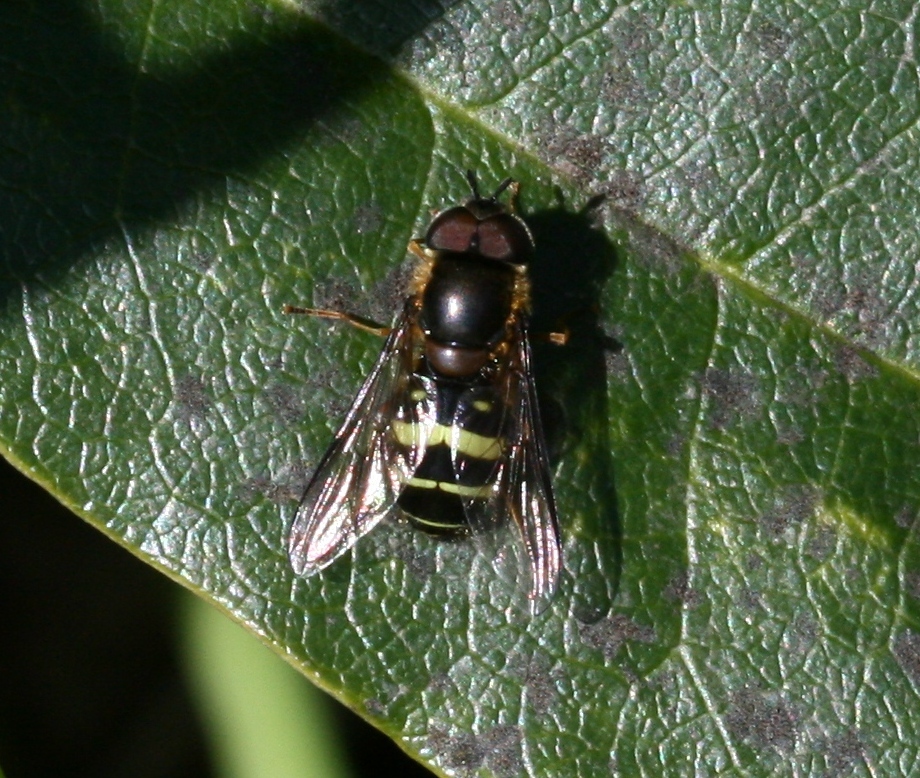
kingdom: Animalia
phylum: Arthropoda
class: Insecta
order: Diptera
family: Syrphidae
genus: Dasysyrphus
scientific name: Dasysyrphus tricinctus
